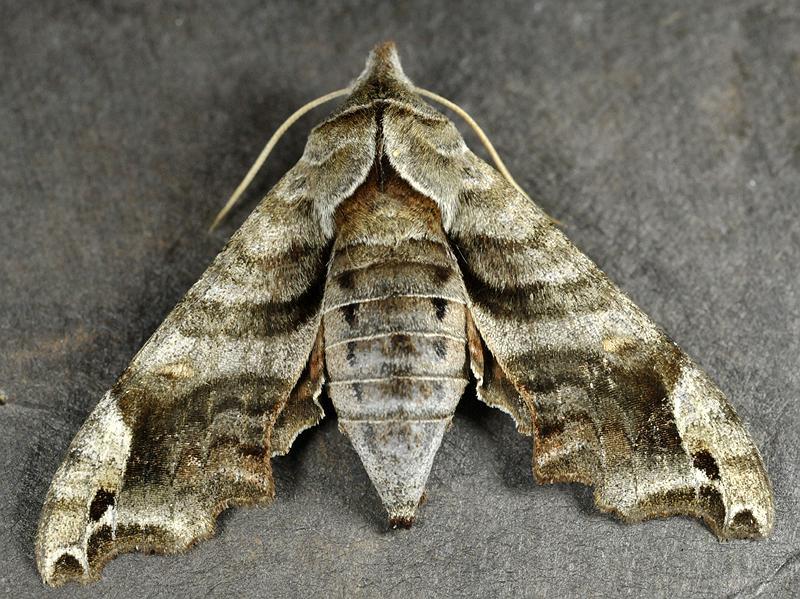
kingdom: Animalia
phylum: Arthropoda
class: Insecta
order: Lepidoptera
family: Sphingidae
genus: Deidamia
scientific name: Deidamia inscriptum
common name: Lettered sphinx
